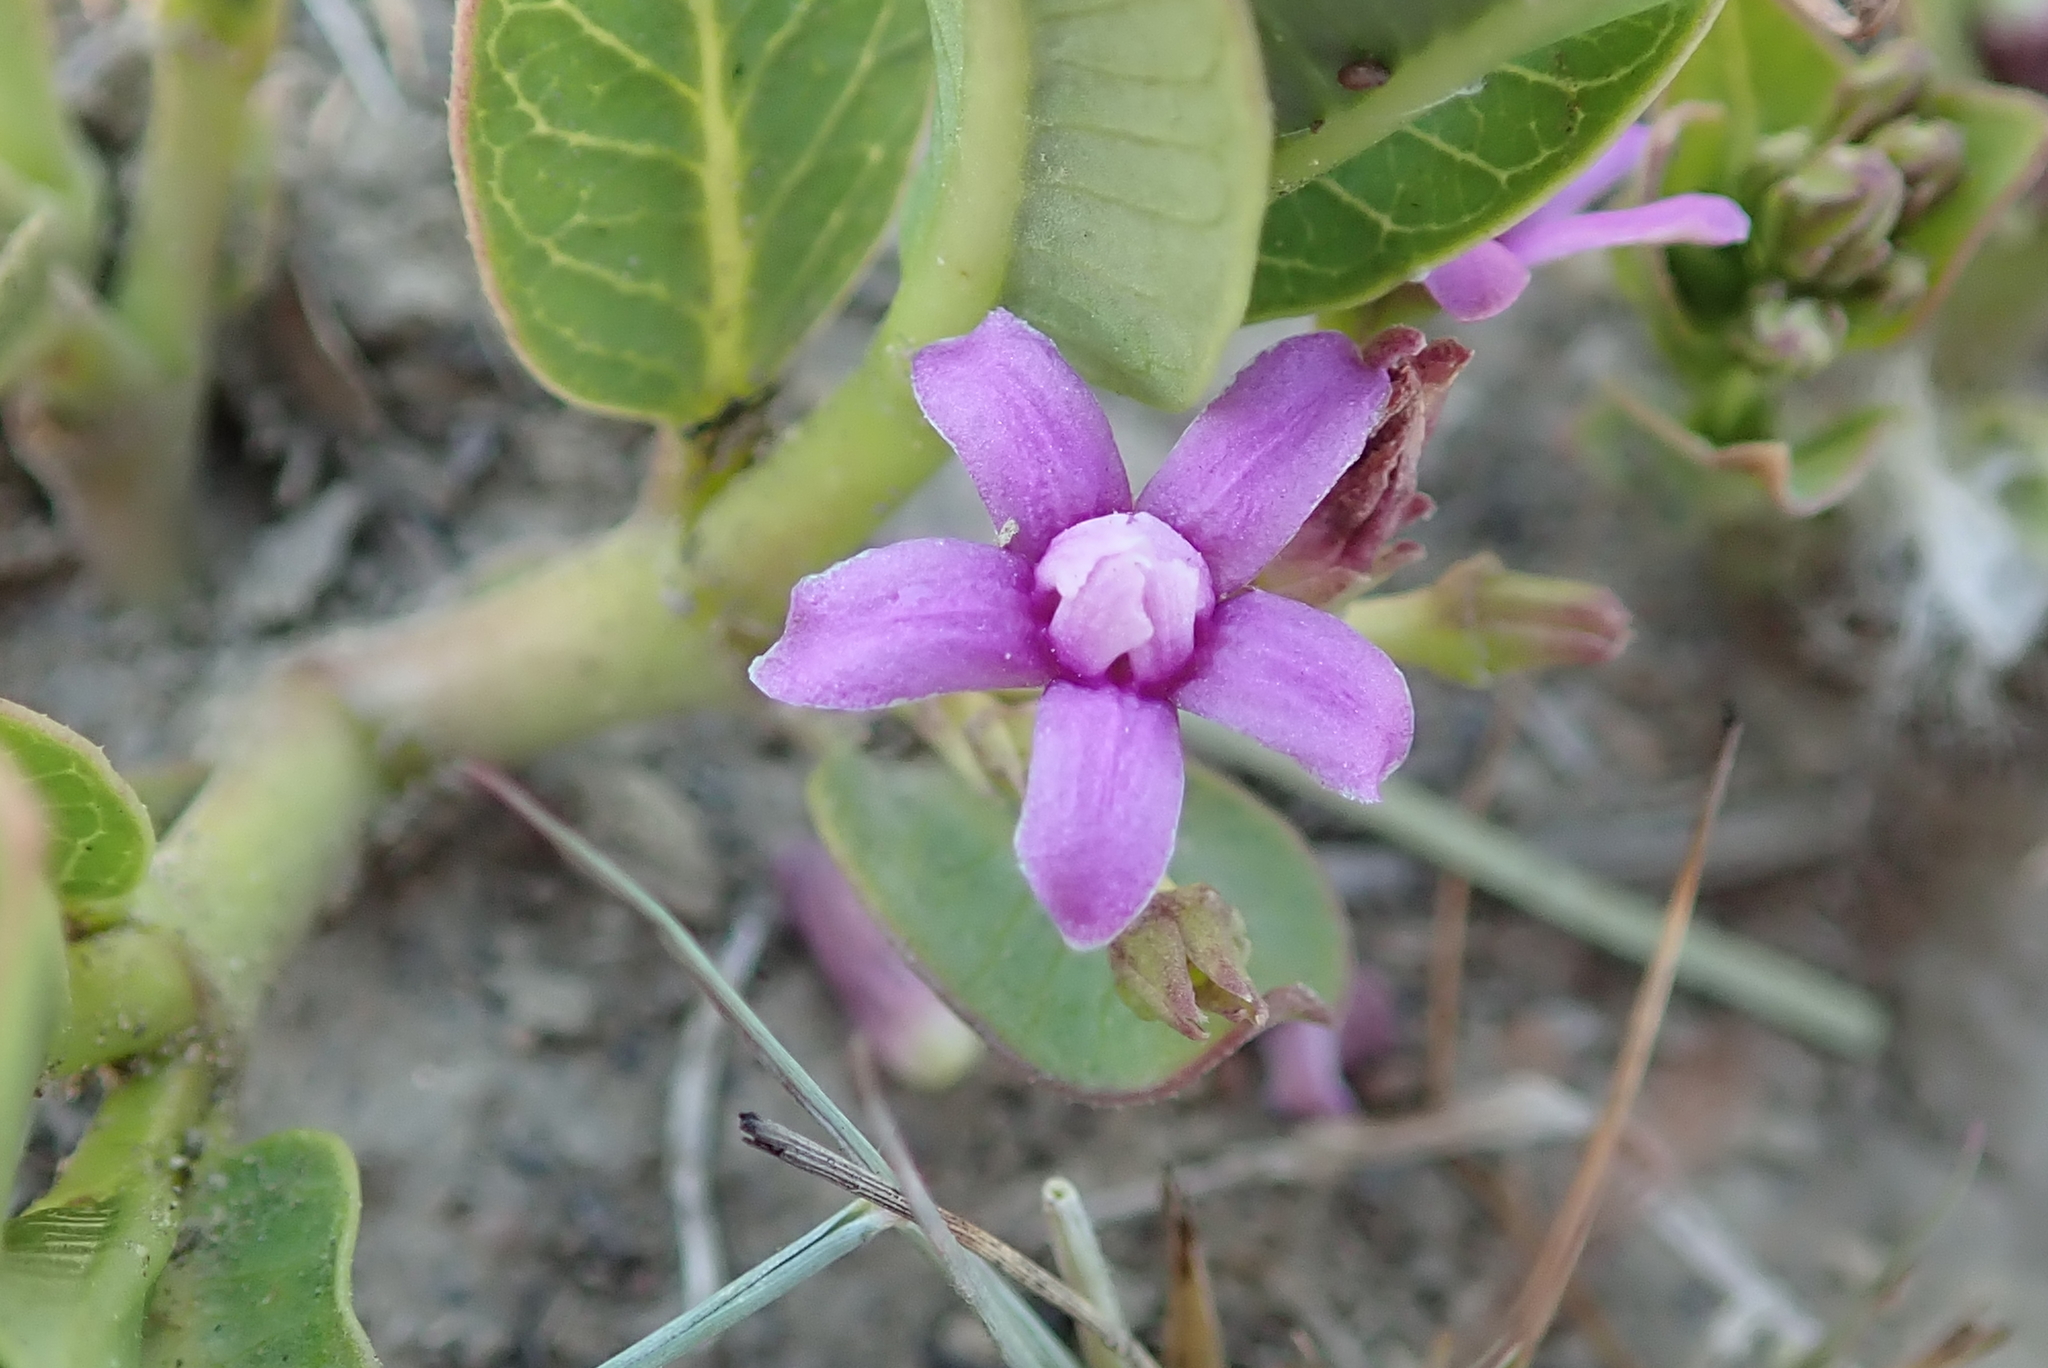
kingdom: Plantae
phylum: Tracheophyta
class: Magnoliopsida
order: Gentianales
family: Apocynaceae
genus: Raphionacme
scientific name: Raphionacme hirsuta
